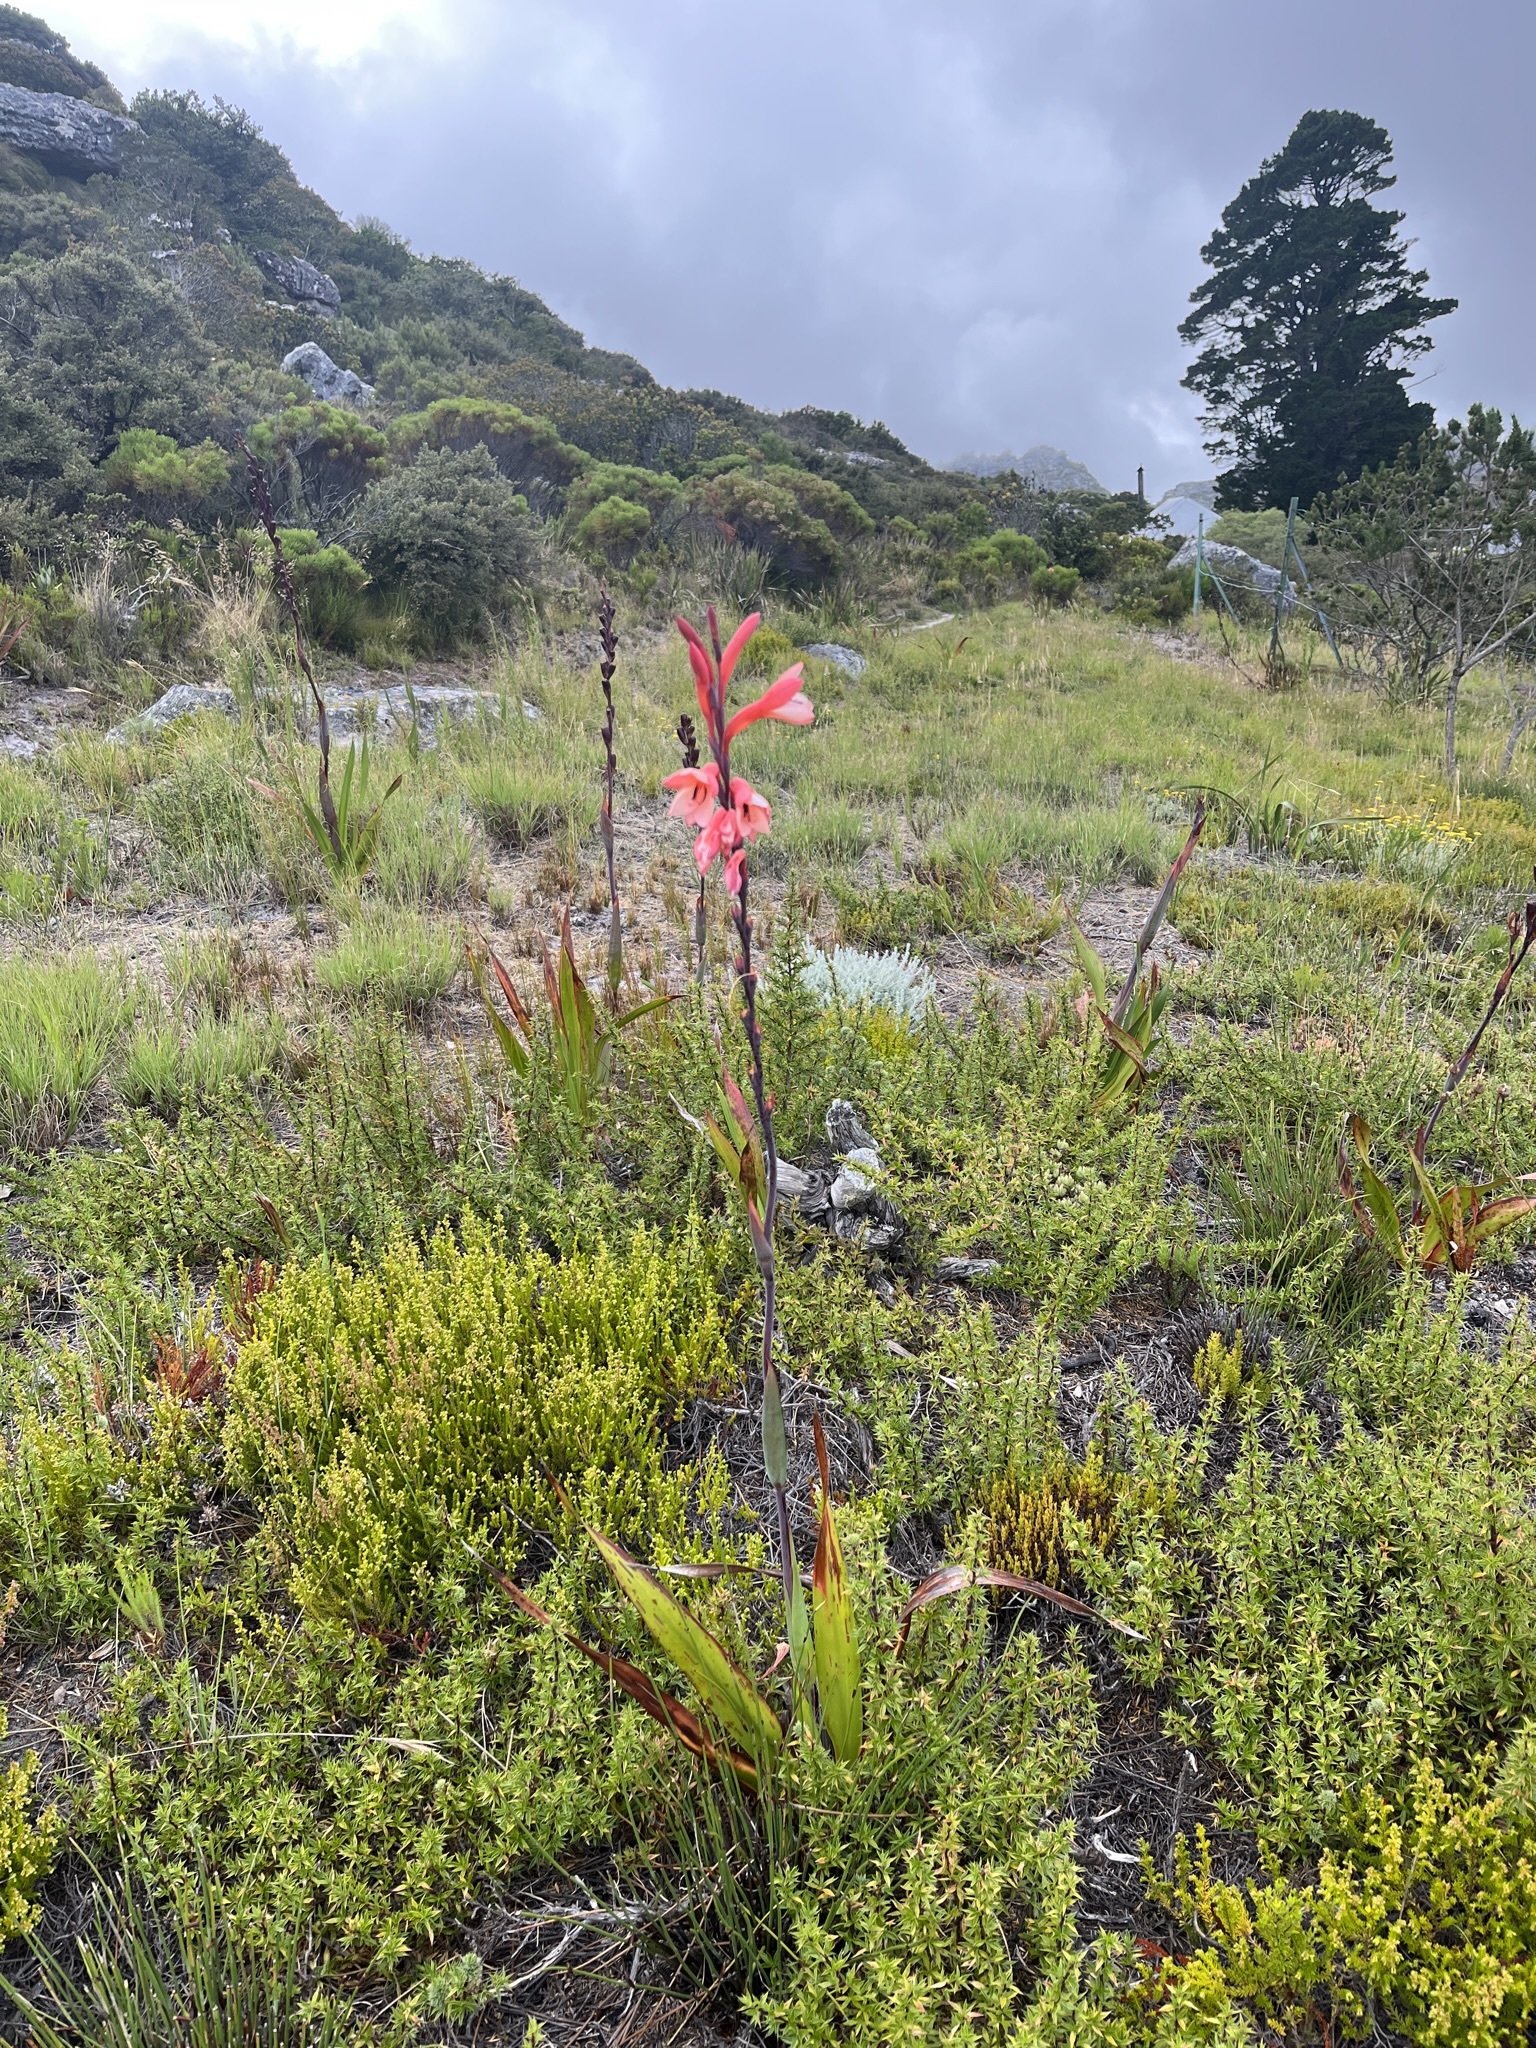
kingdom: Plantae
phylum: Tracheophyta
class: Liliopsida
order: Asparagales
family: Iridaceae
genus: Watsonia
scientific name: Watsonia tabularis
